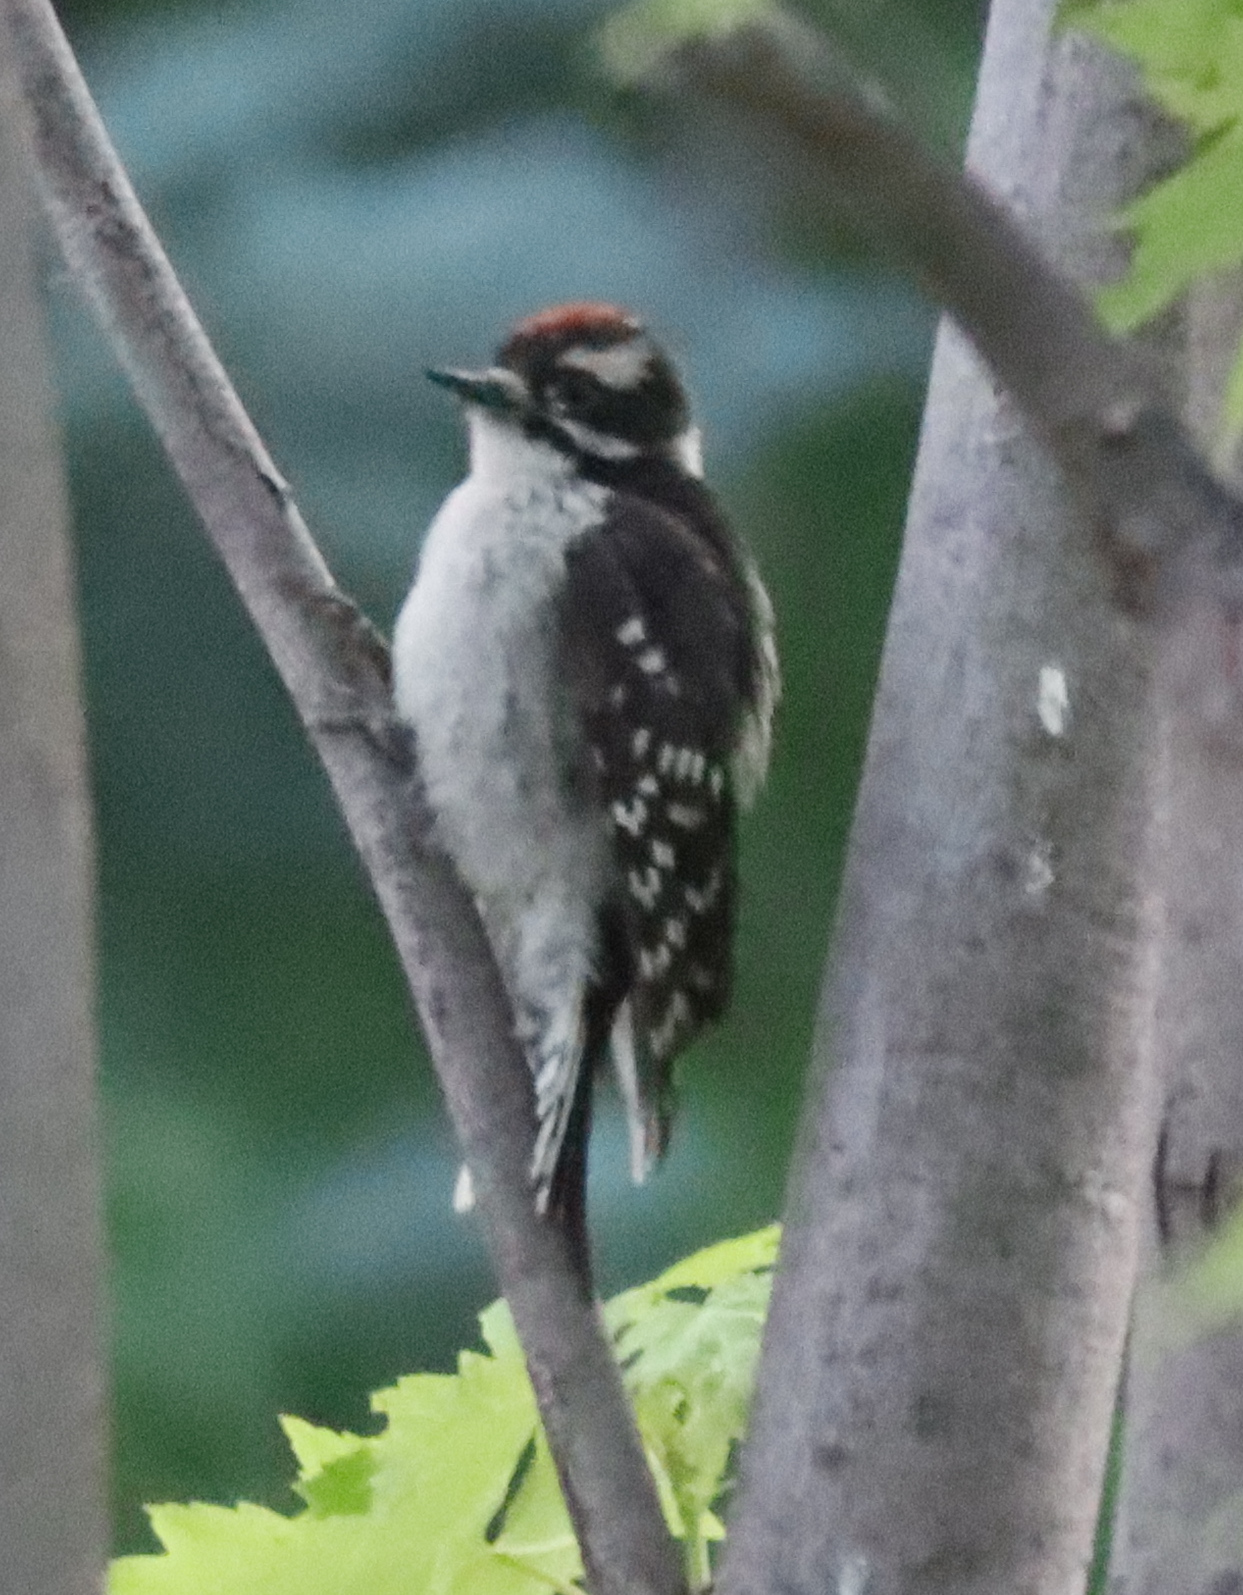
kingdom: Animalia
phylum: Chordata
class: Aves
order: Piciformes
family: Picidae
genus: Dryobates
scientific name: Dryobates pubescens
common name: Downy woodpecker
